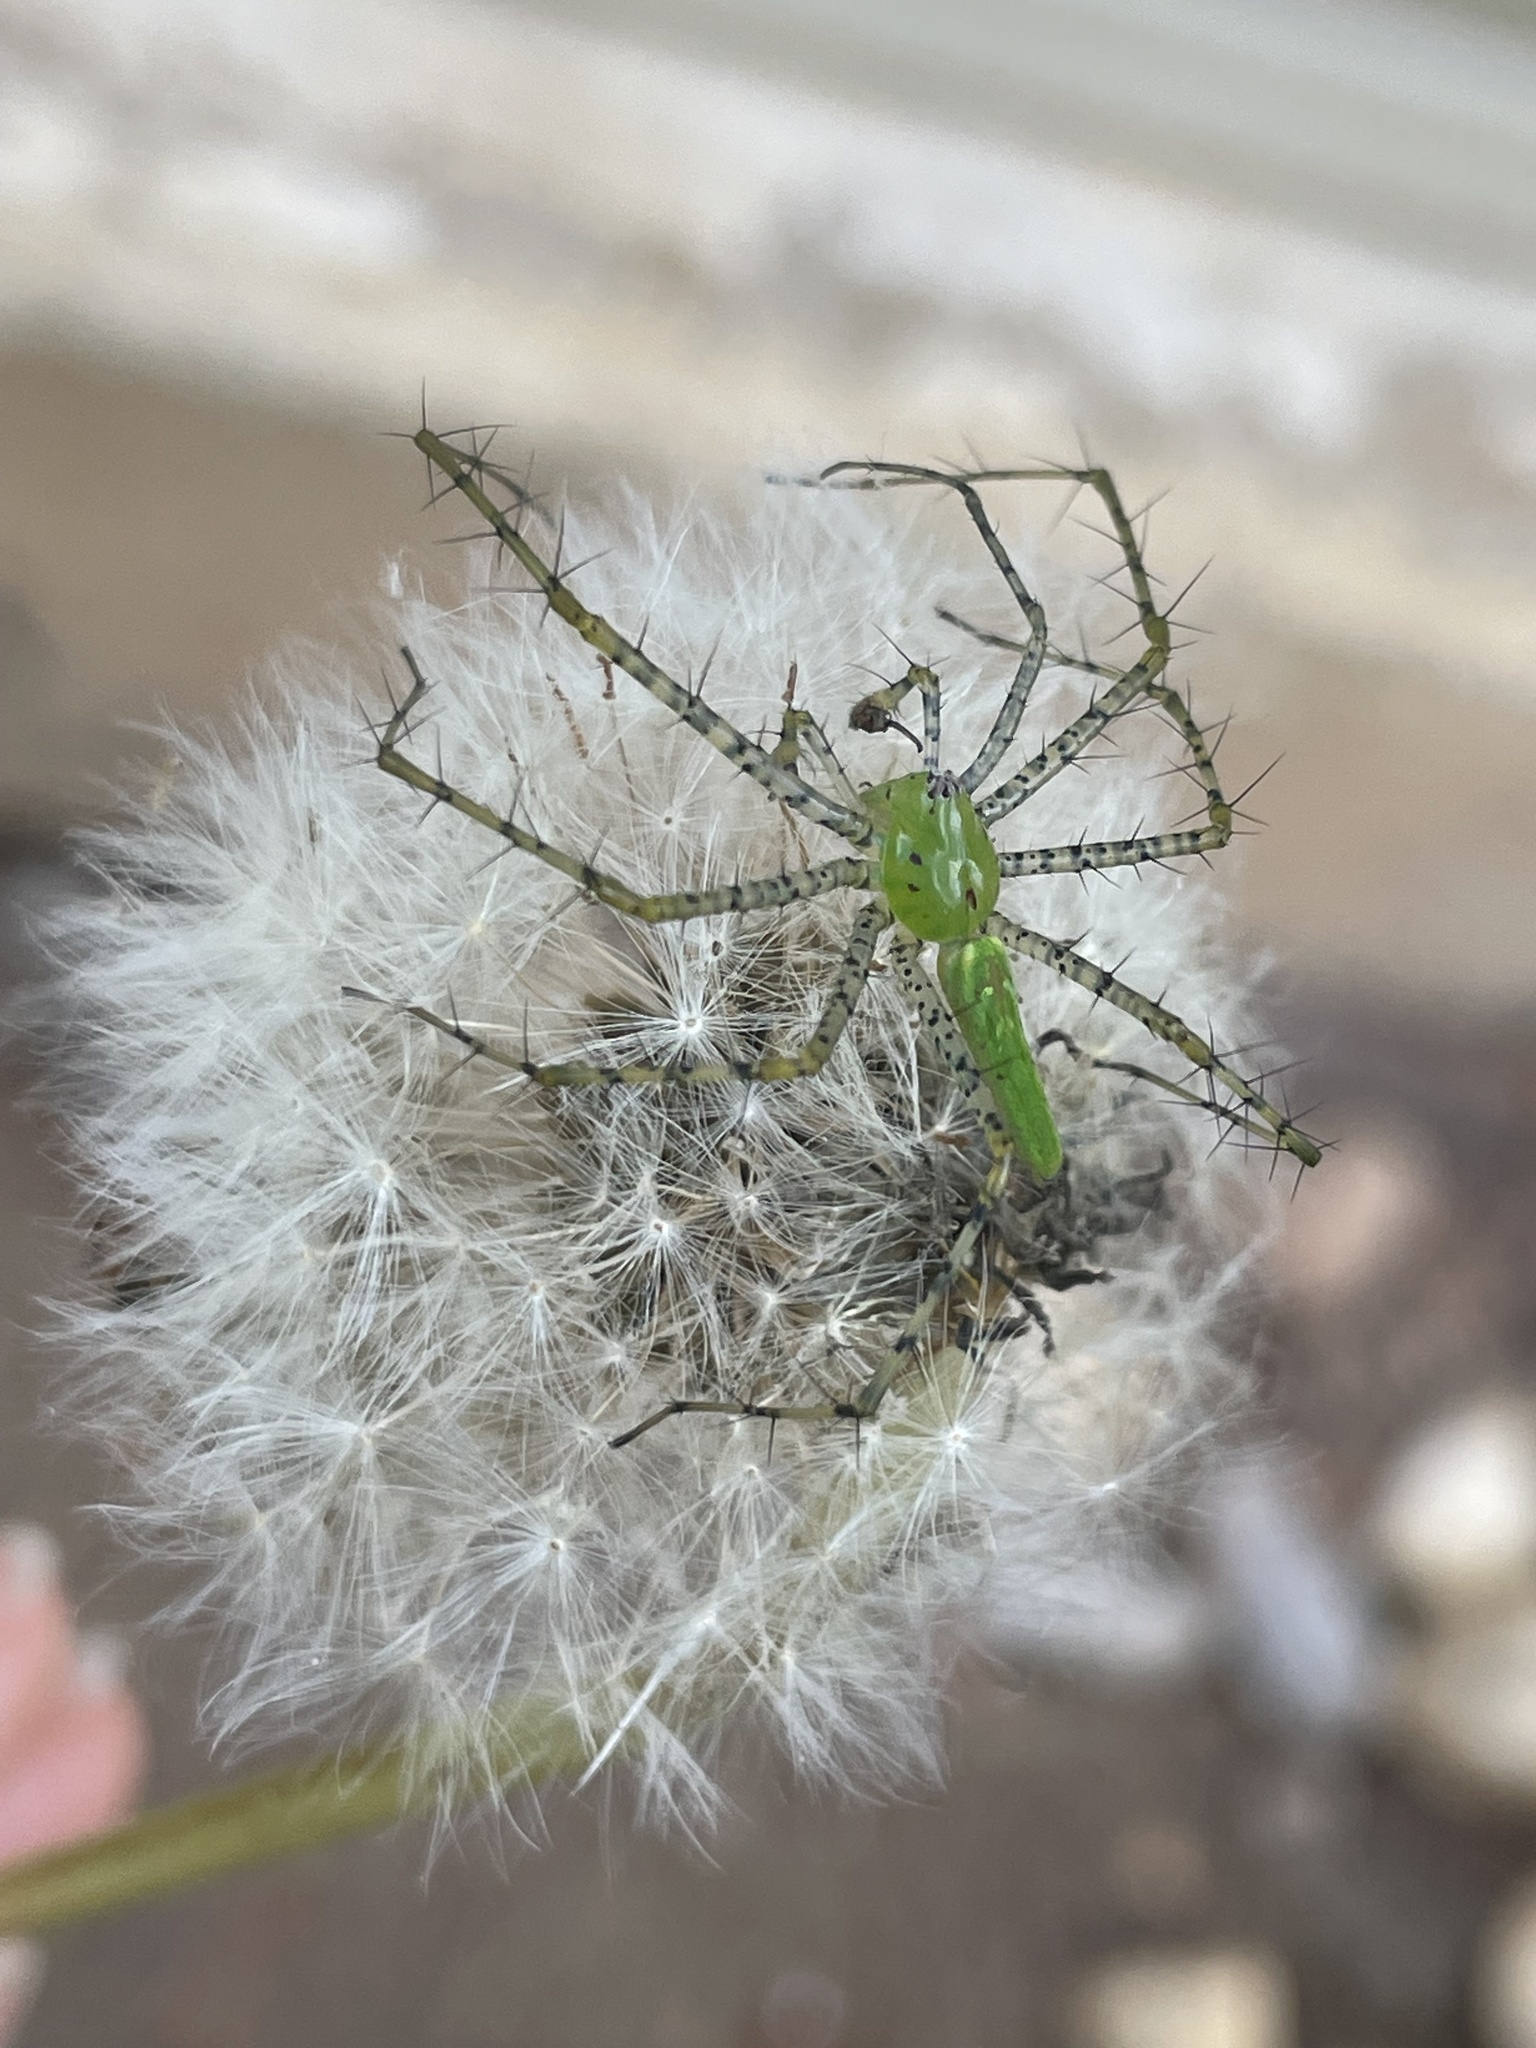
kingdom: Animalia
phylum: Arthropoda
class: Arachnida
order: Araneae
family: Oxyopidae
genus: Peucetia
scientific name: Peucetia viridans
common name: Lynx spiders
